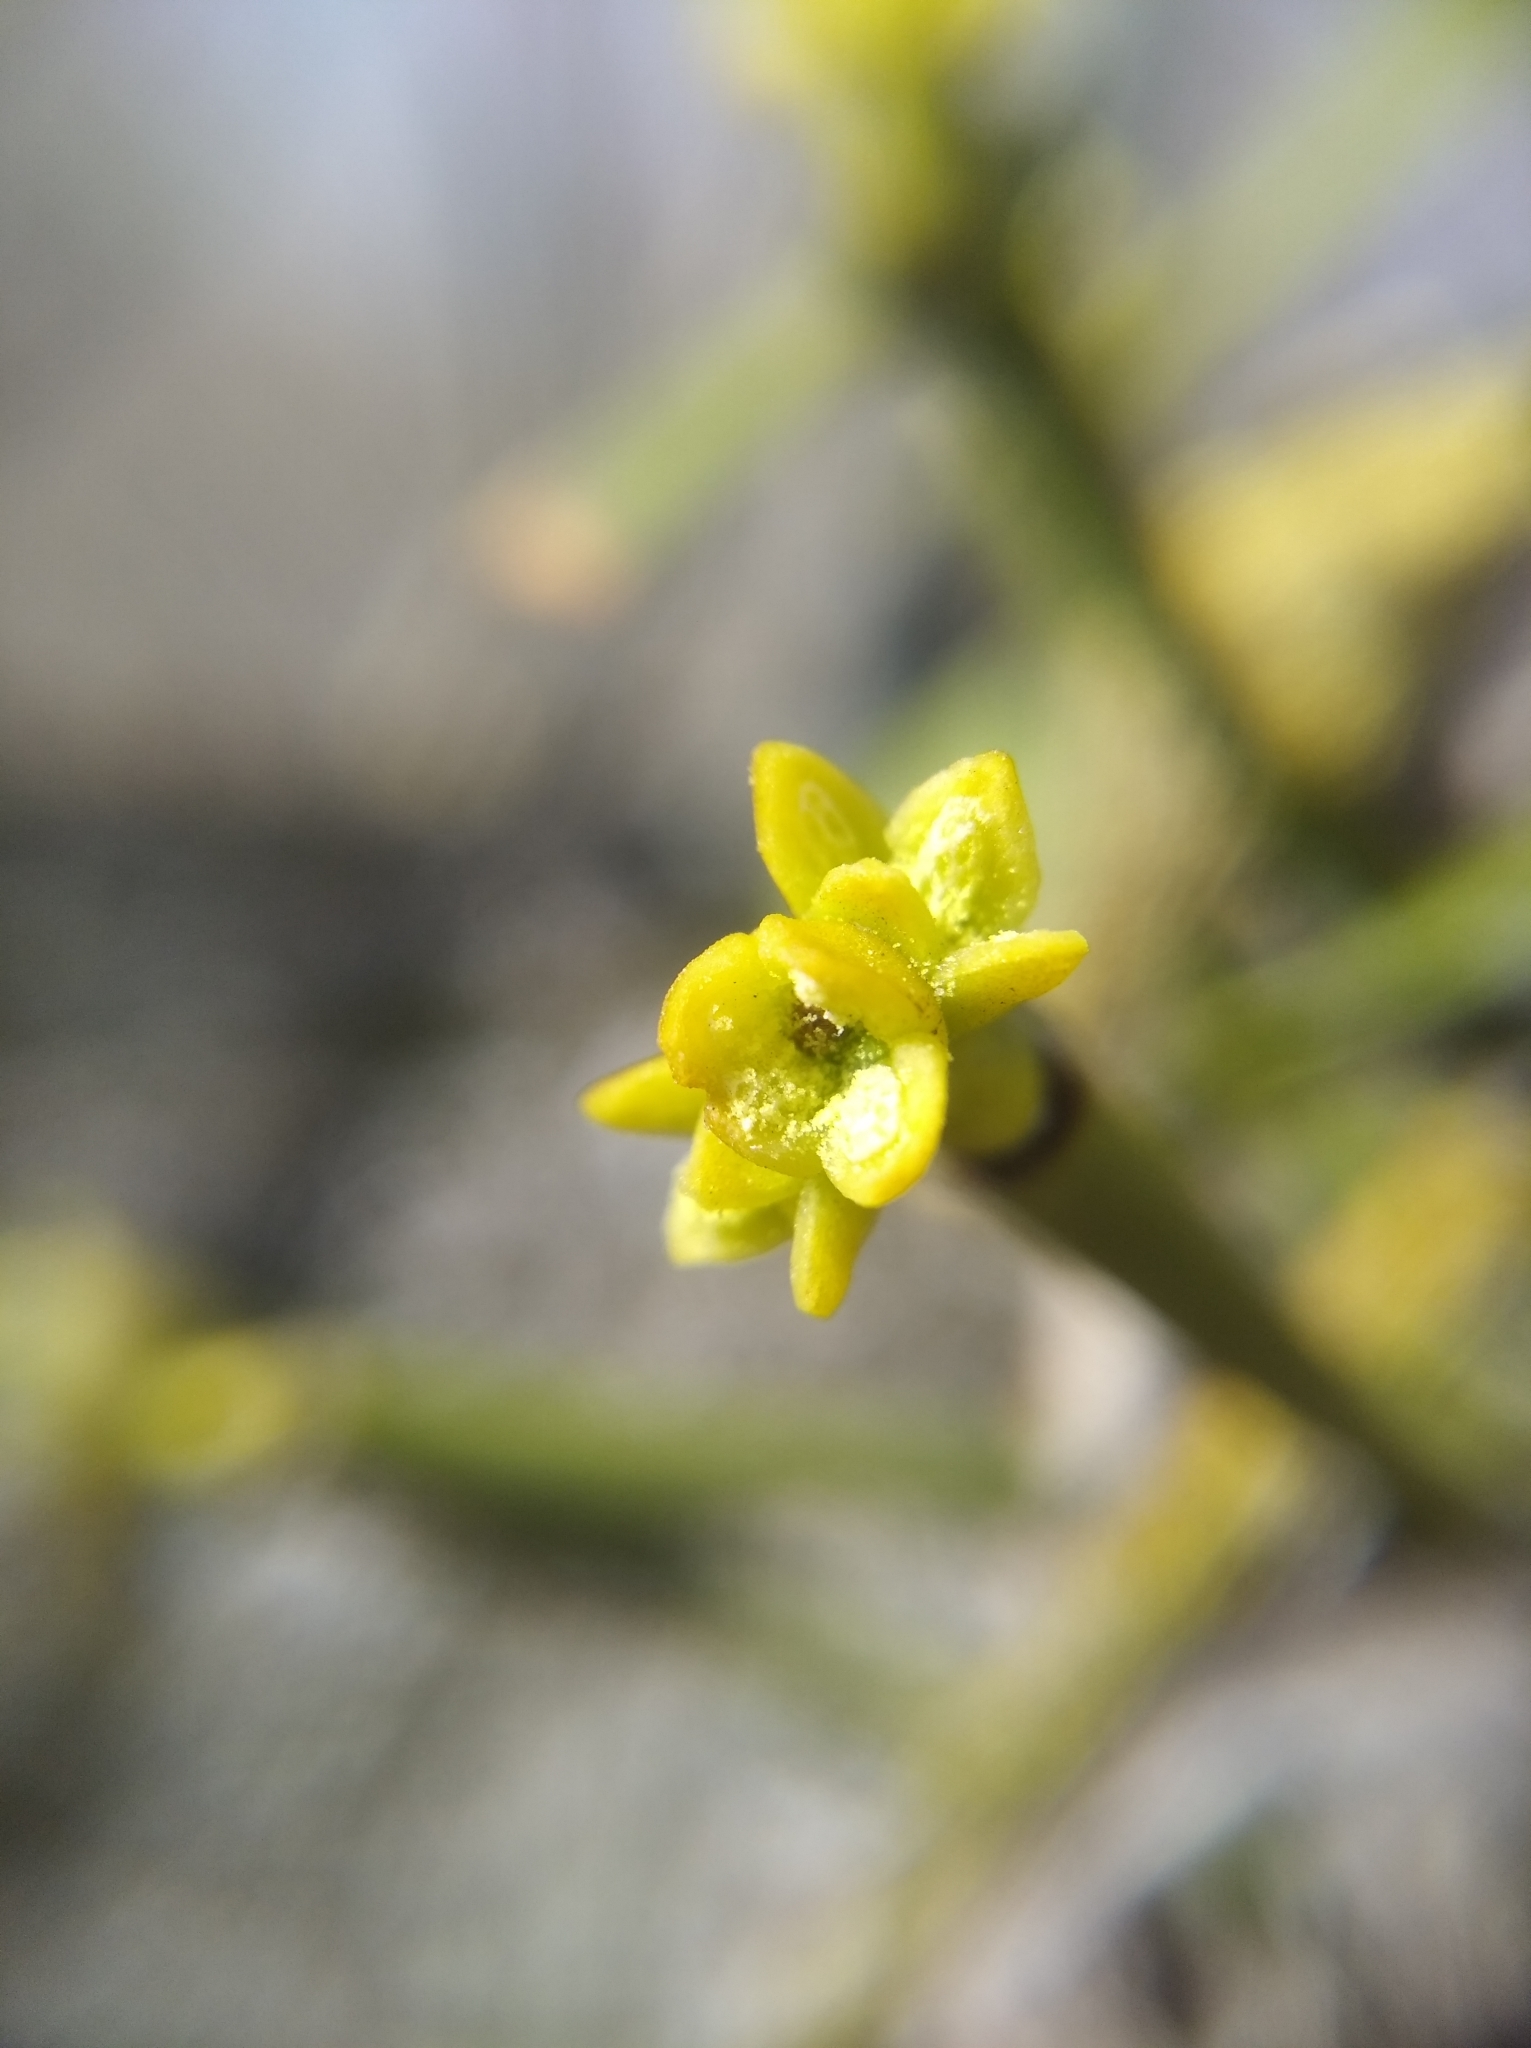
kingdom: Plantae
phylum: Tracheophyta
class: Magnoliopsida
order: Santalales
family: Viscaceae
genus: Viscum
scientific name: Viscum album
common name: Mistletoe
